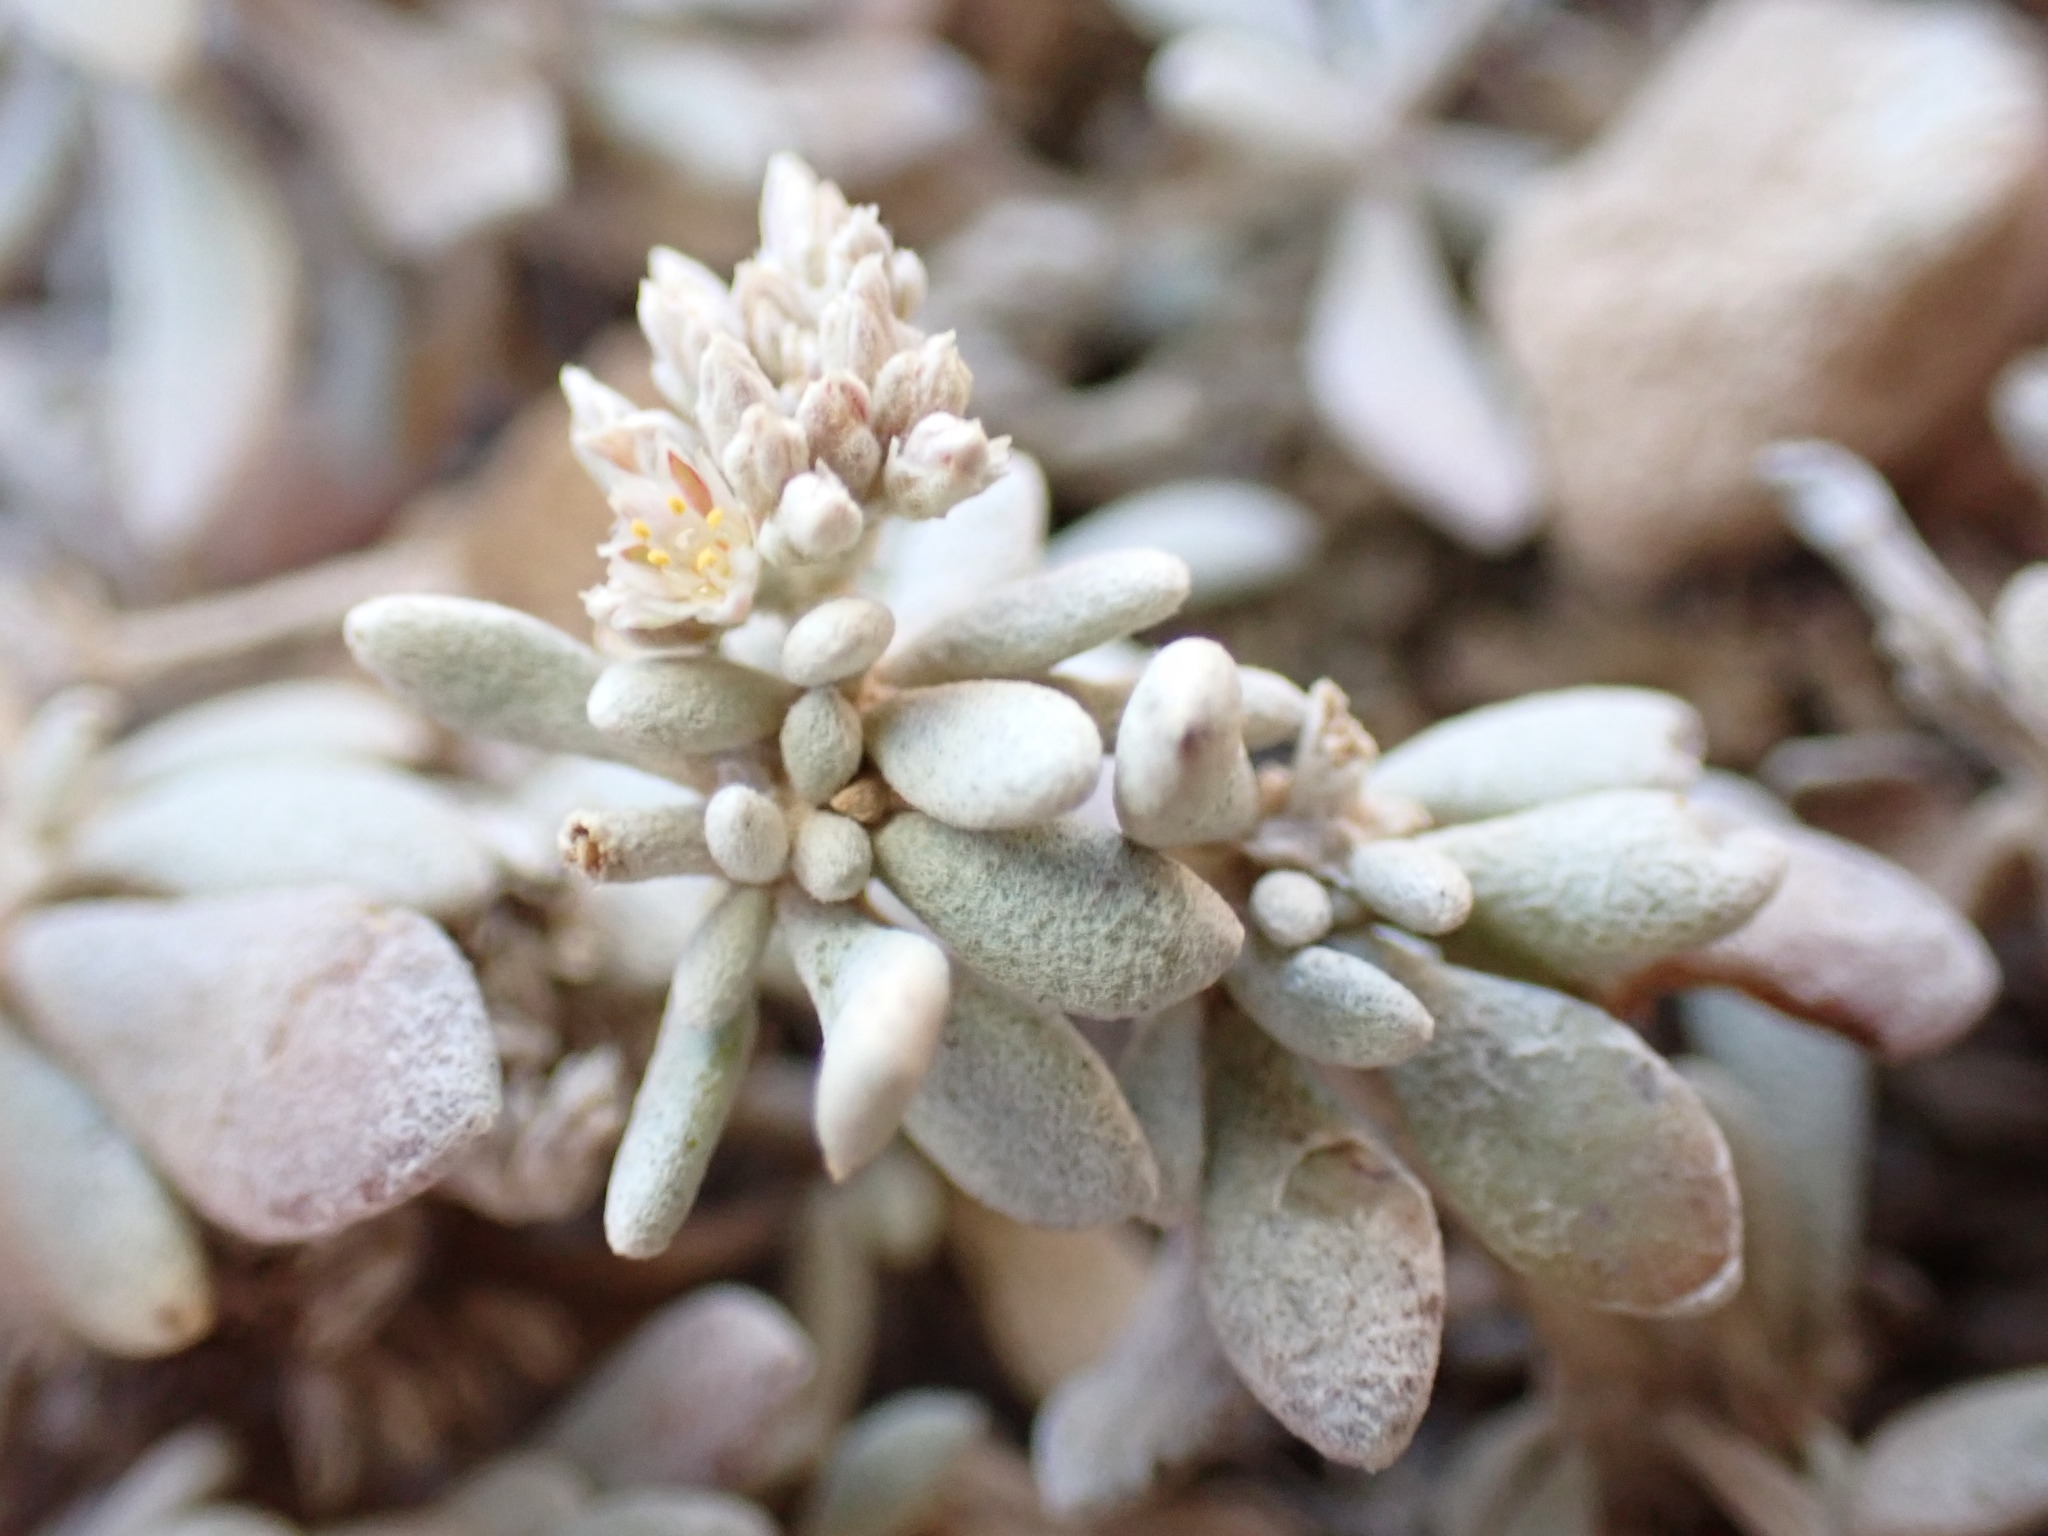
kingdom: Plantae
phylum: Tracheophyta
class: Magnoliopsida
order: Caryophyllales
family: Caryophyllaceae
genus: Polycarpaea
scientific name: Polycarpaea nivea
